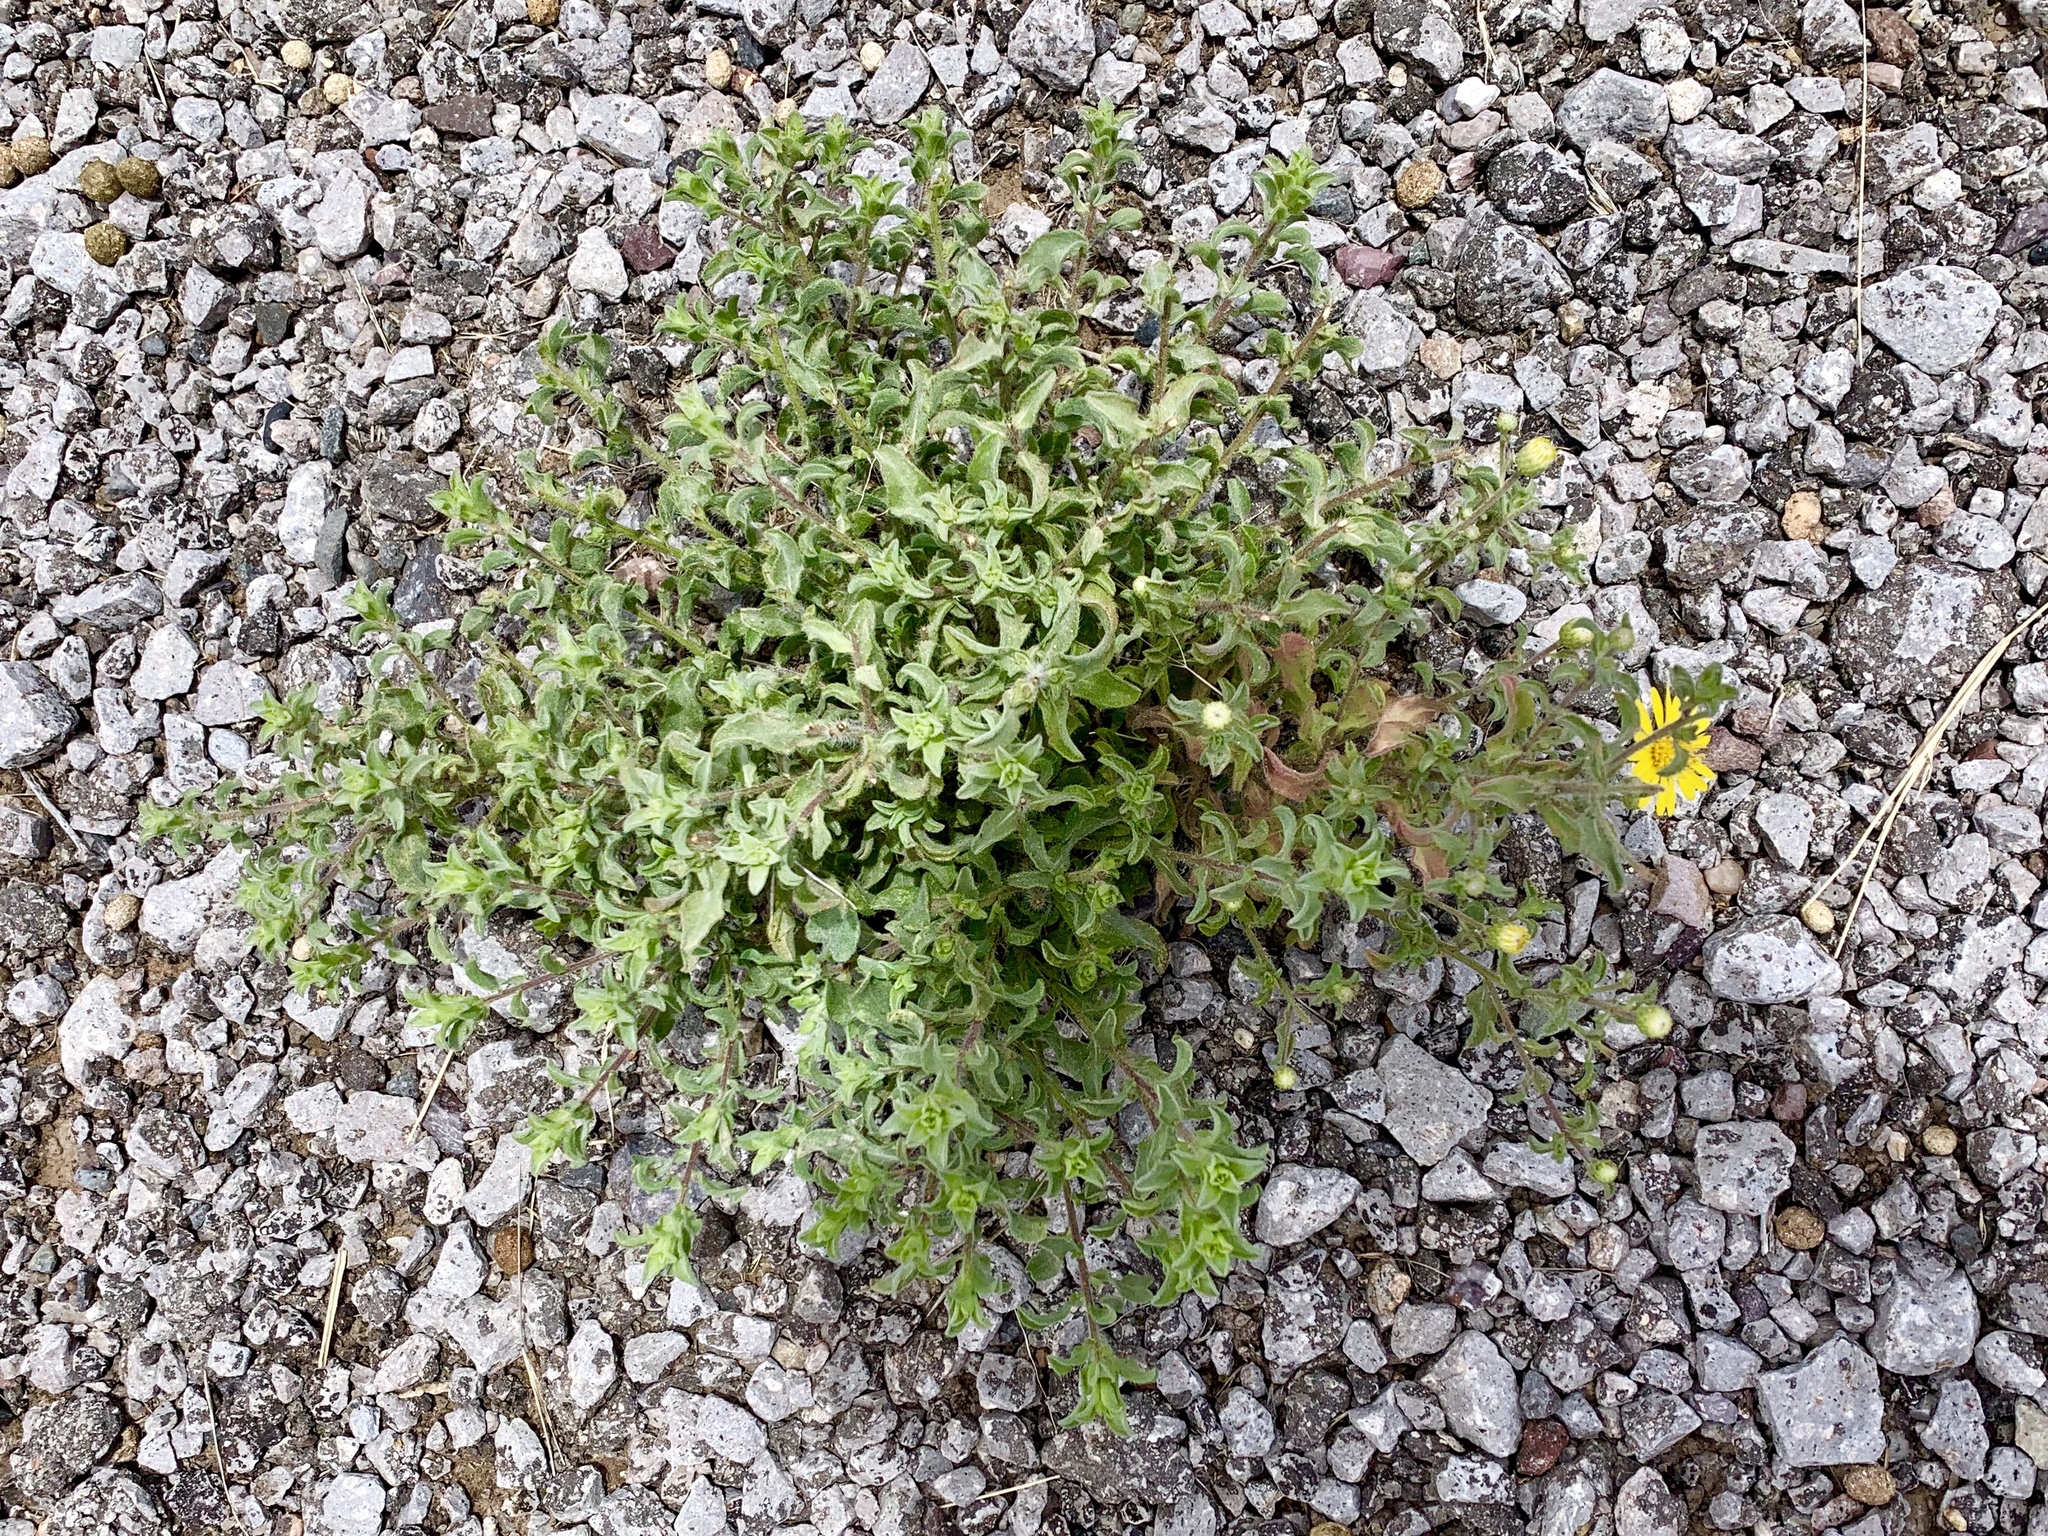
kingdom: Plantae
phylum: Tracheophyta
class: Magnoliopsida
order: Asterales
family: Asteraceae
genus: Heterotheca
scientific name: Heterotheca zionensis
